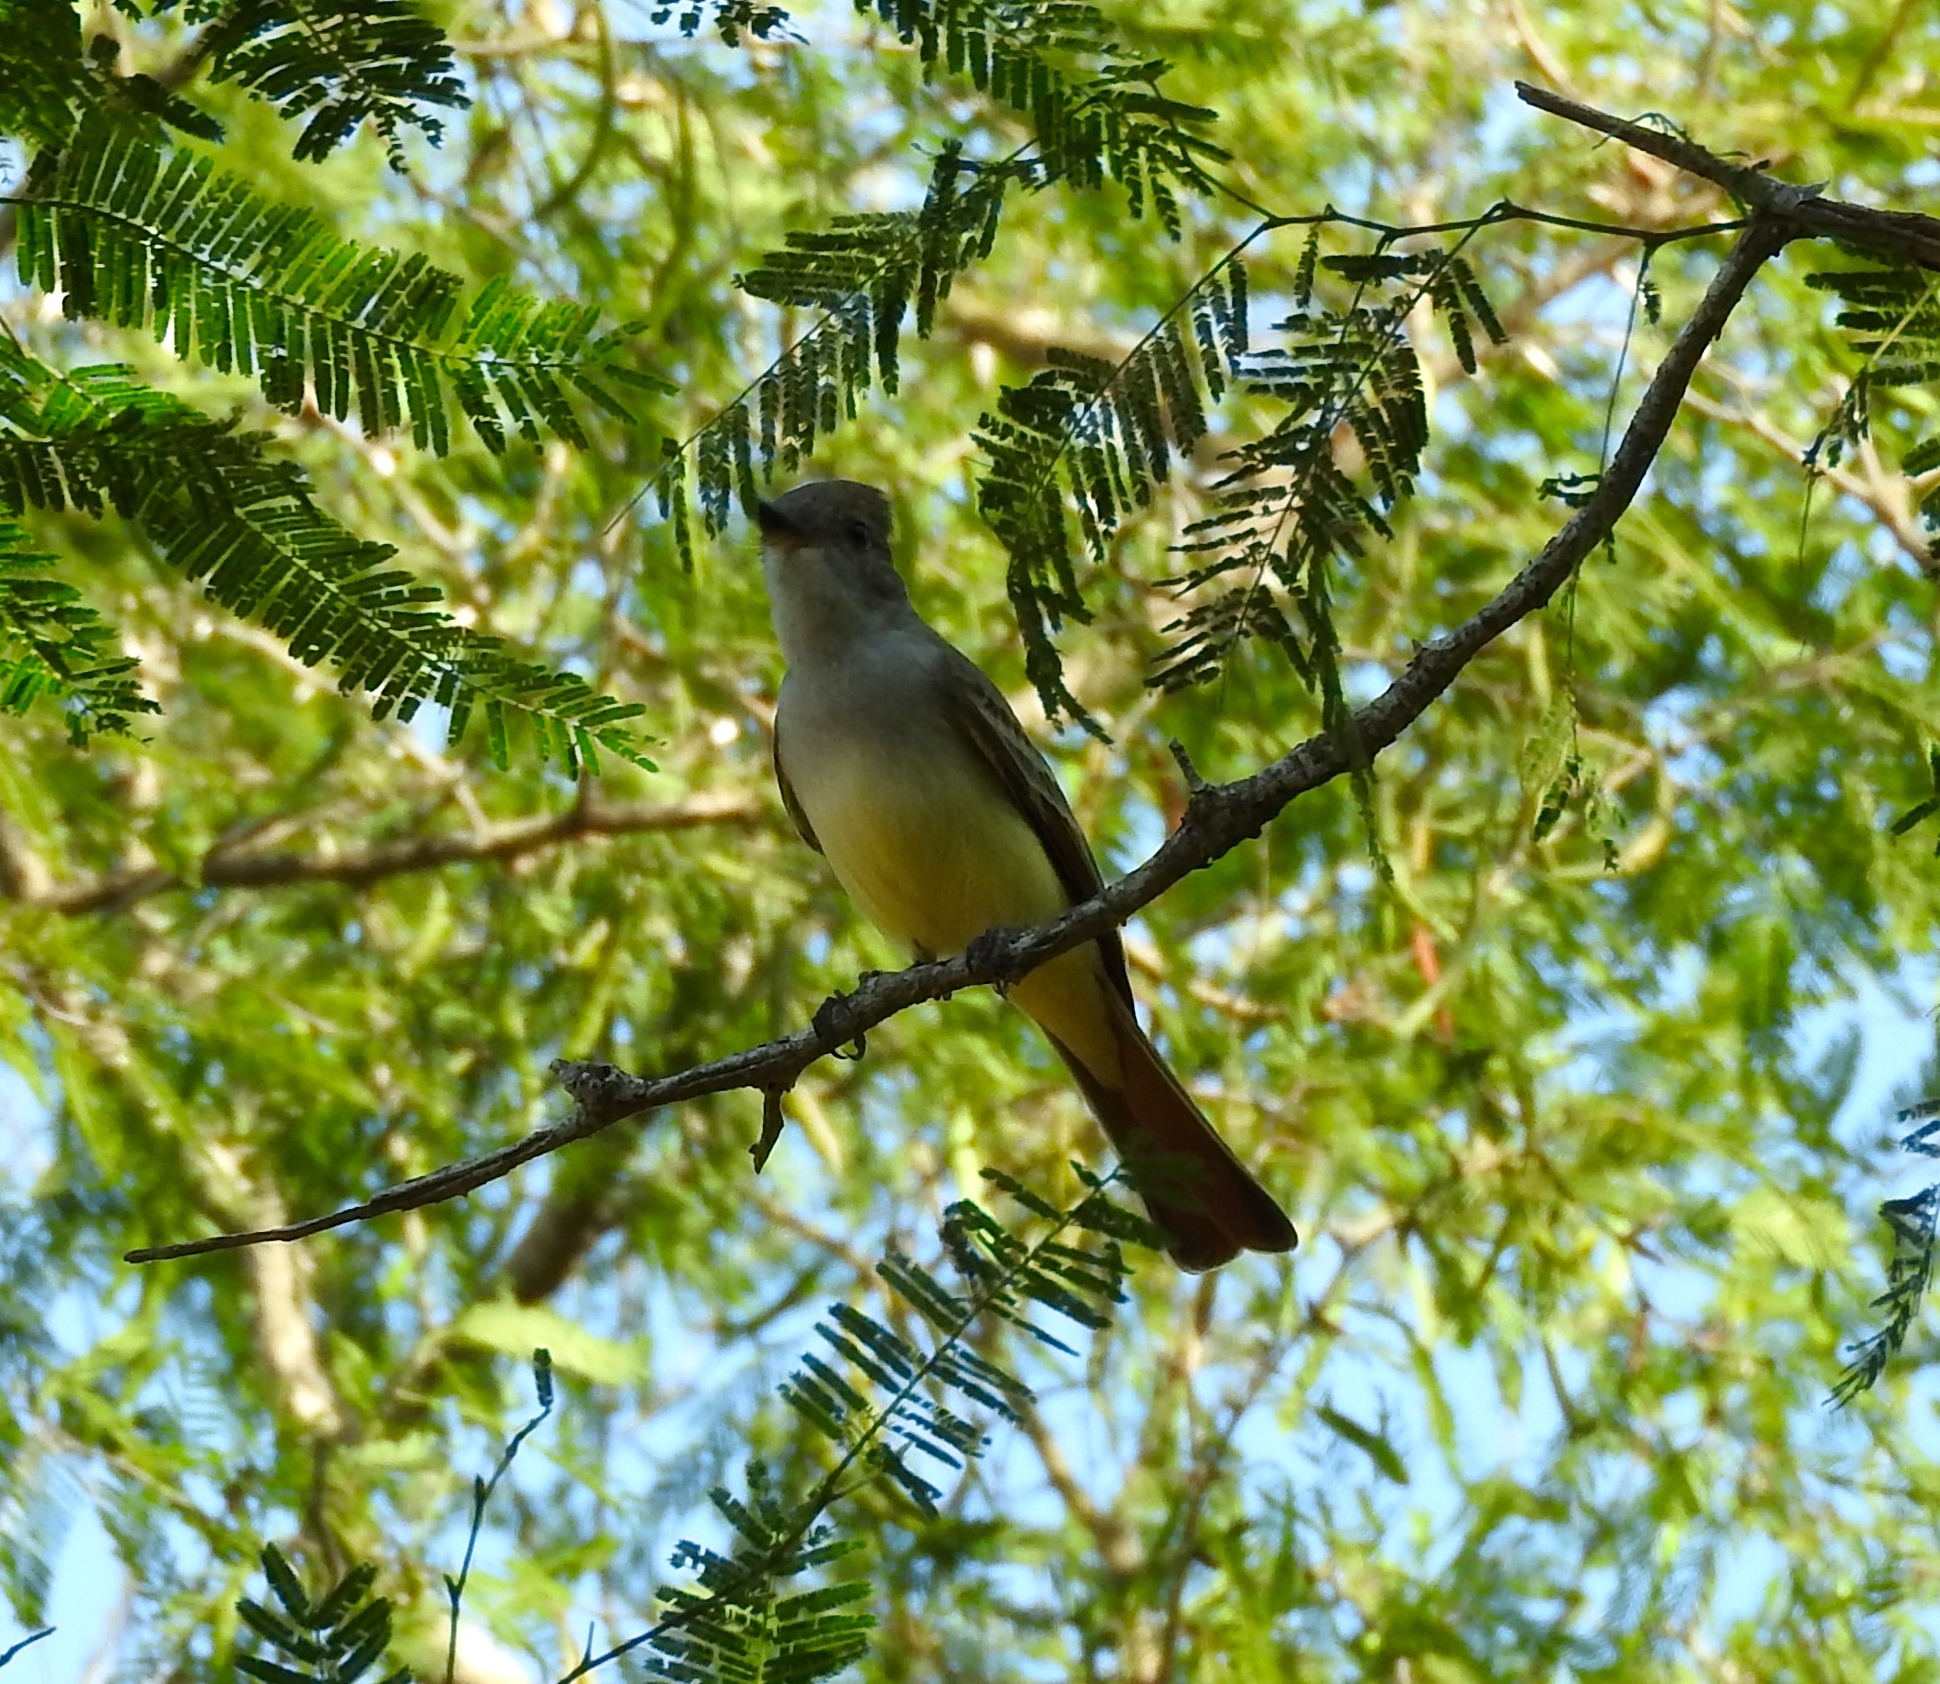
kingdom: Animalia
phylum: Chordata
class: Aves
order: Passeriformes
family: Tyrannidae
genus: Myiarchus
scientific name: Myiarchus
